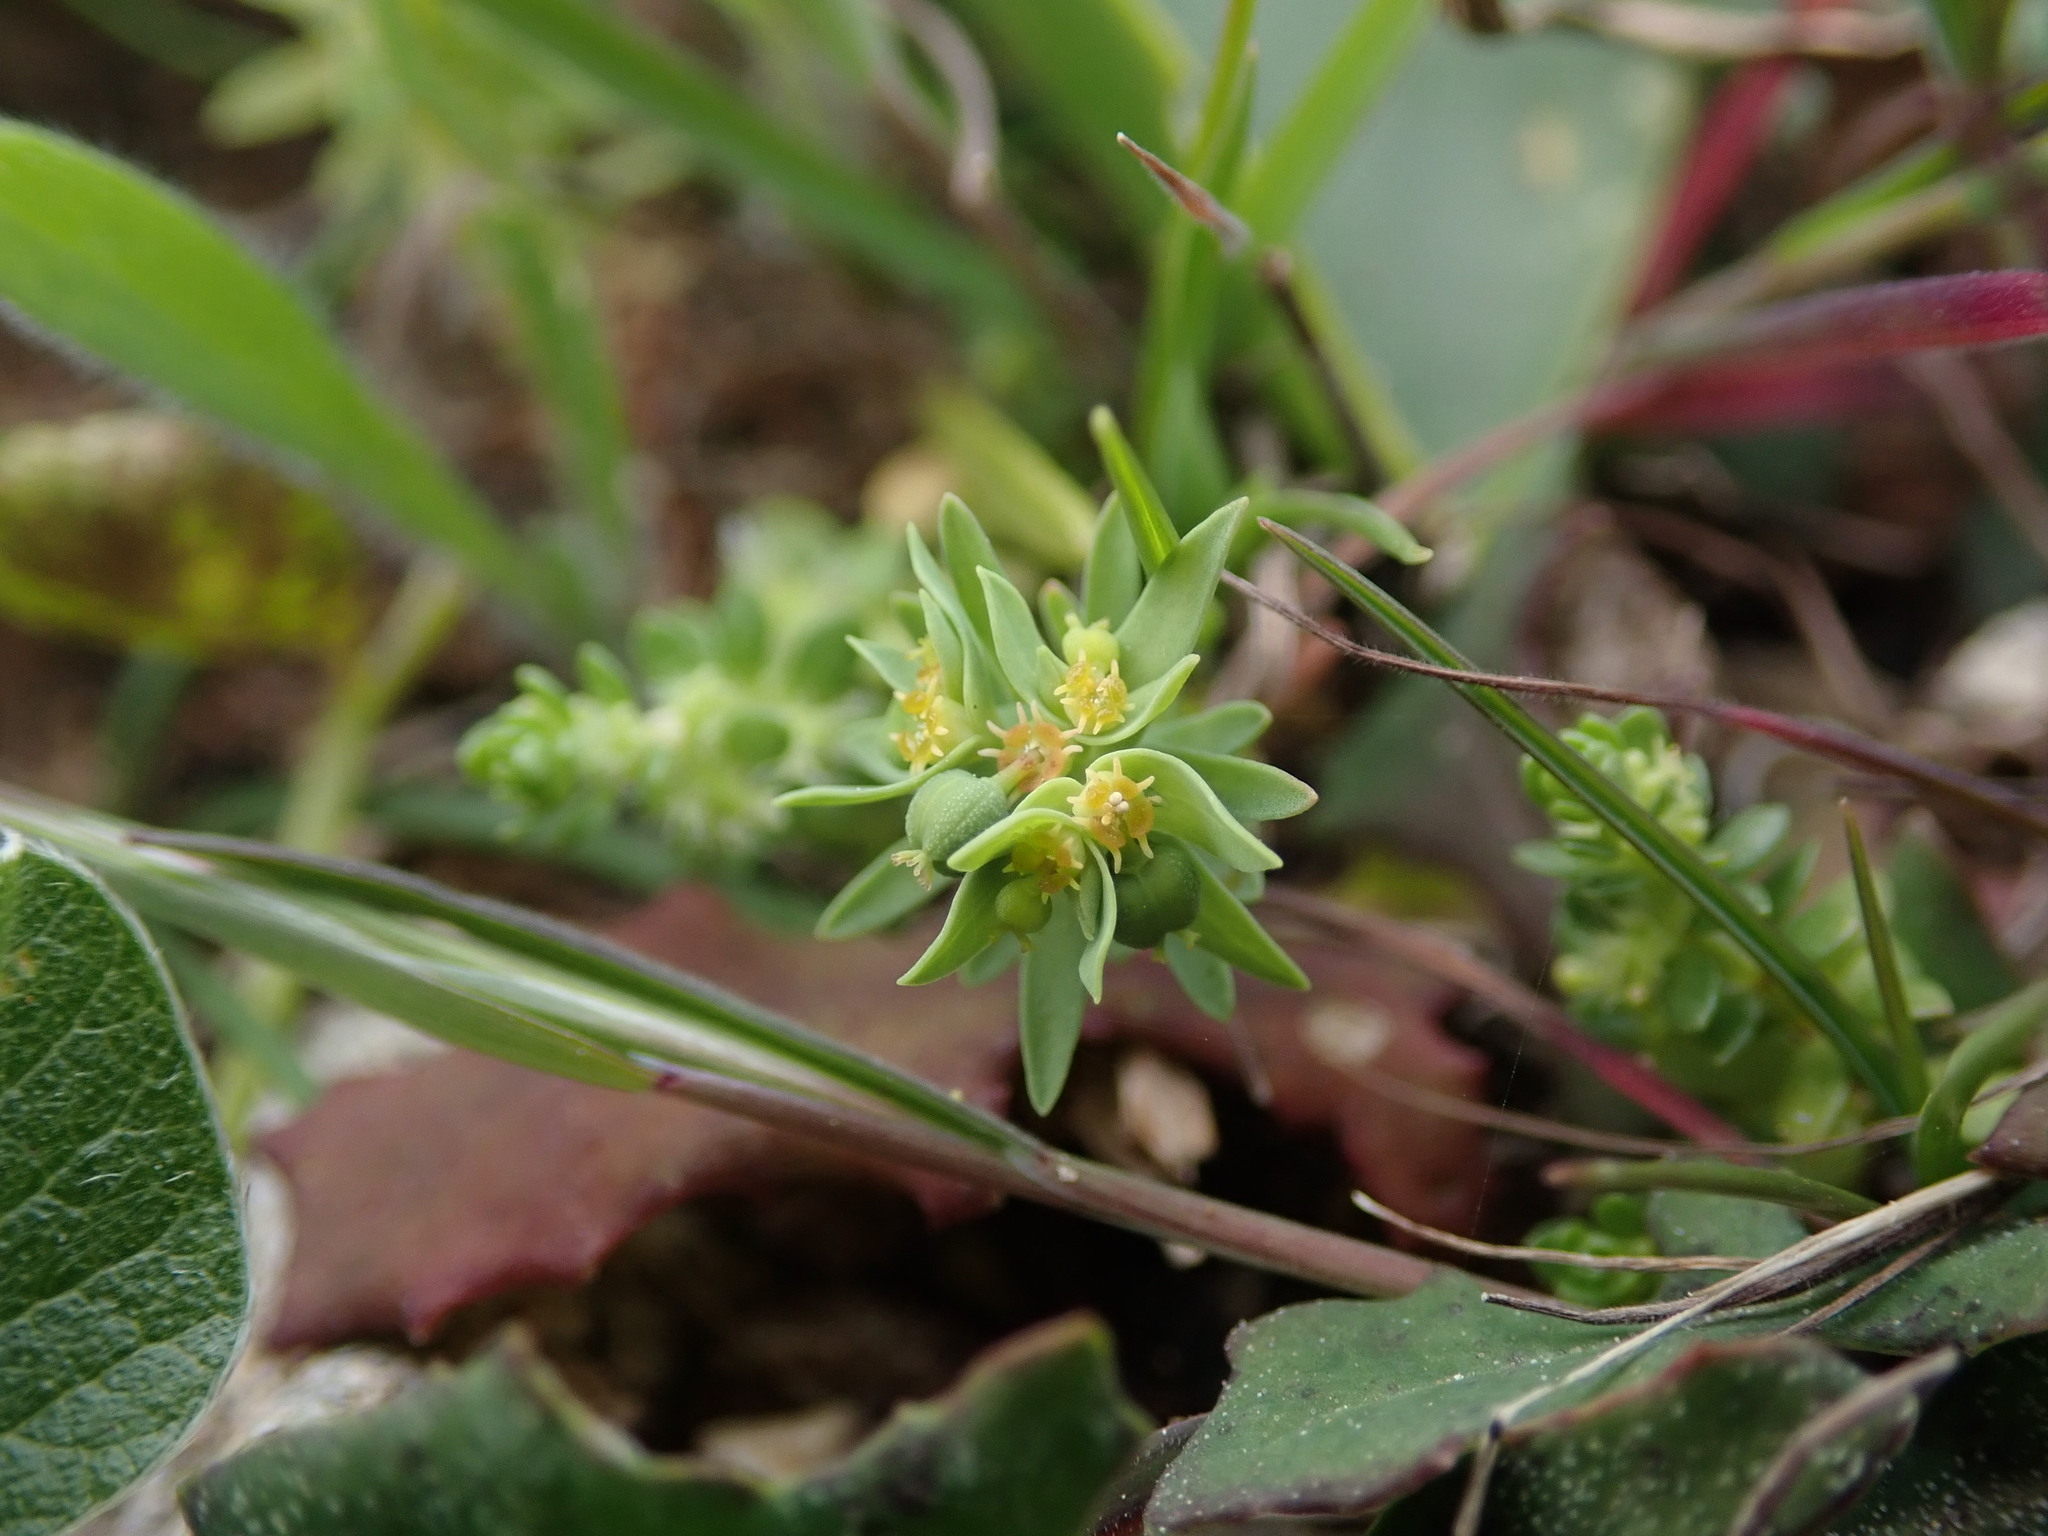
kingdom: Plantae
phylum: Tracheophyta
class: Magnoliopsida
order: Malpighiales
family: Euphorbiaceae
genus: Euphorbia
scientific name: Euphorbia exigua
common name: Dwarf spurge
